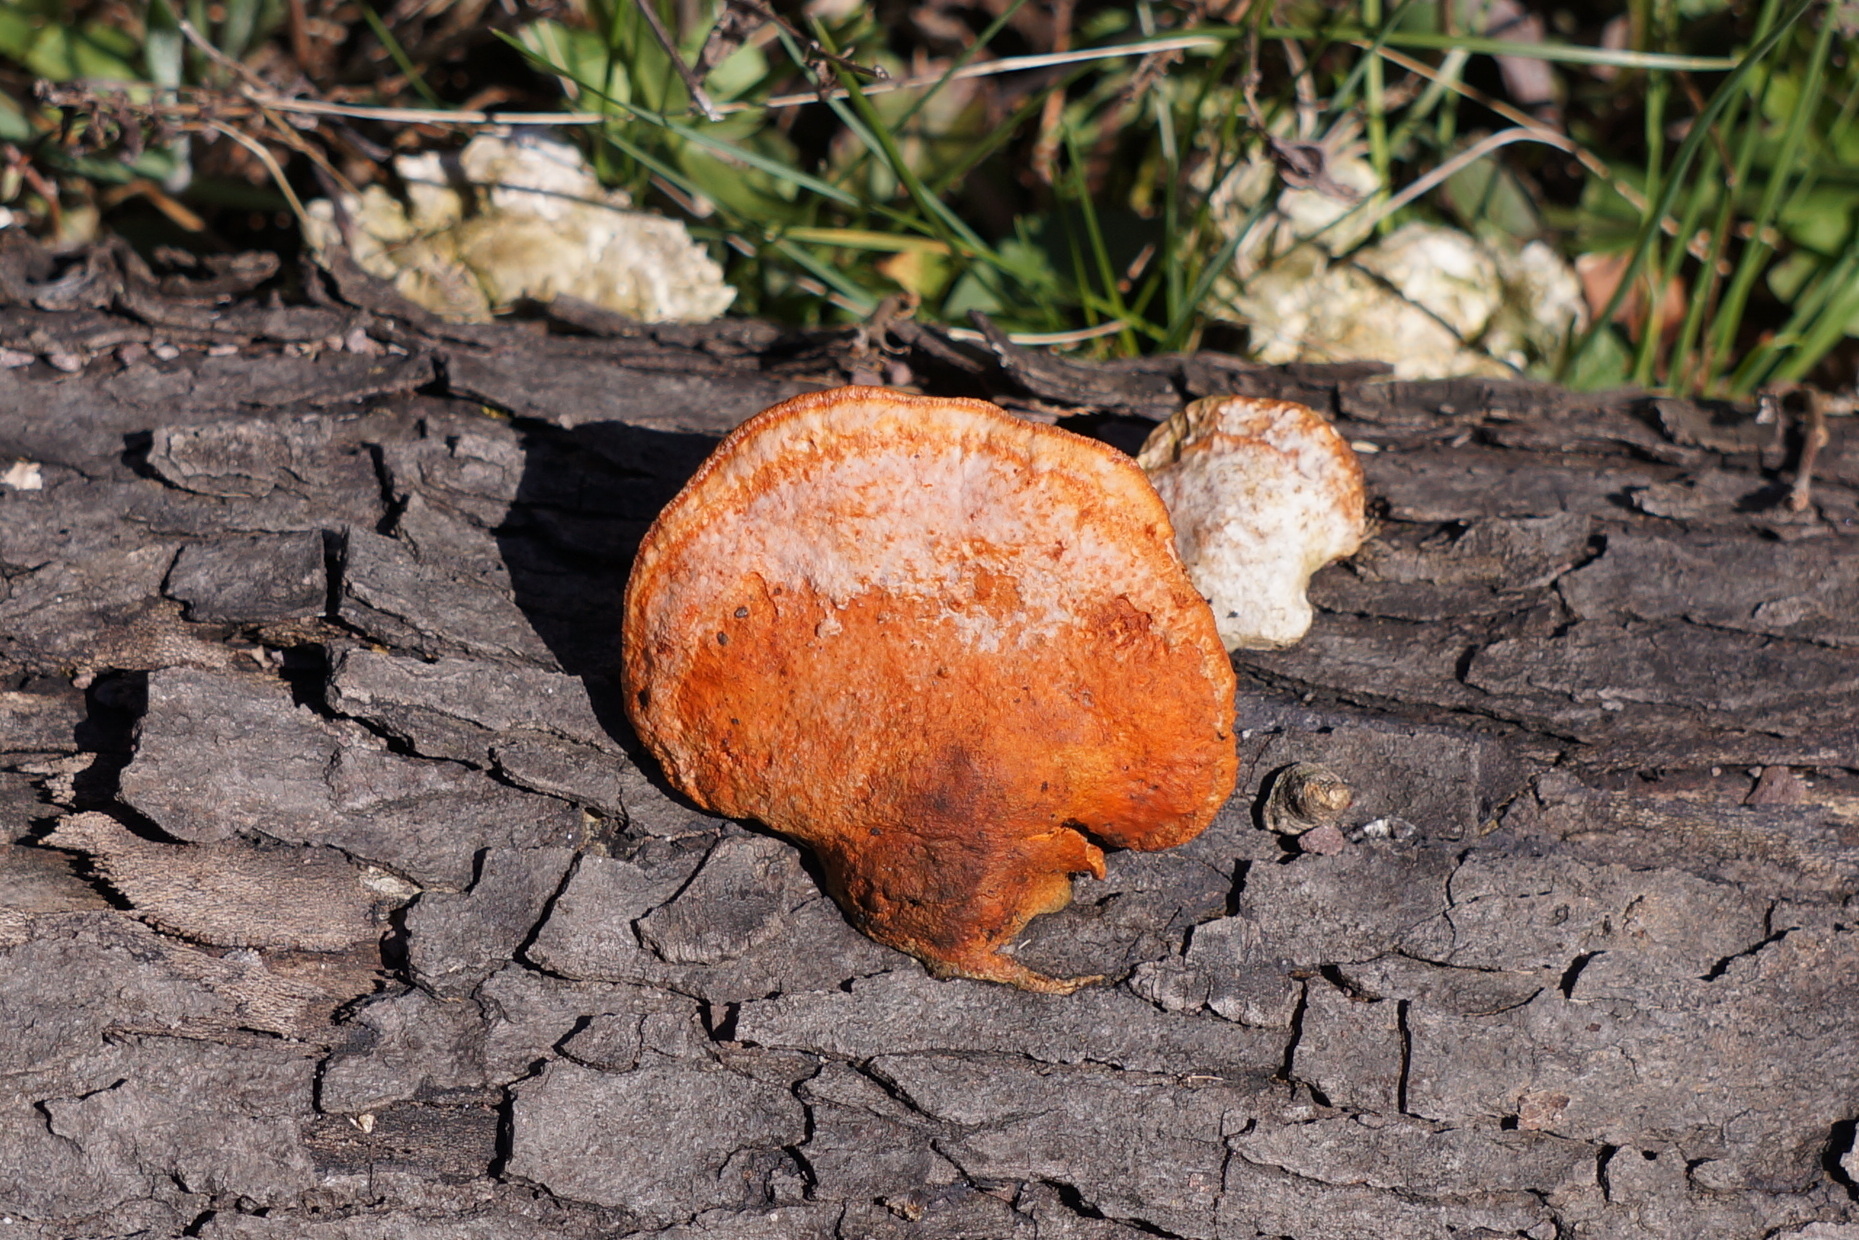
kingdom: Fungi
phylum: Basidiomycota
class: Agaricomycetes
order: Polyporales
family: Polyporaceae
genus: Trametes
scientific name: Trametes cinnabarina
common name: Northern cinnabar polypore
